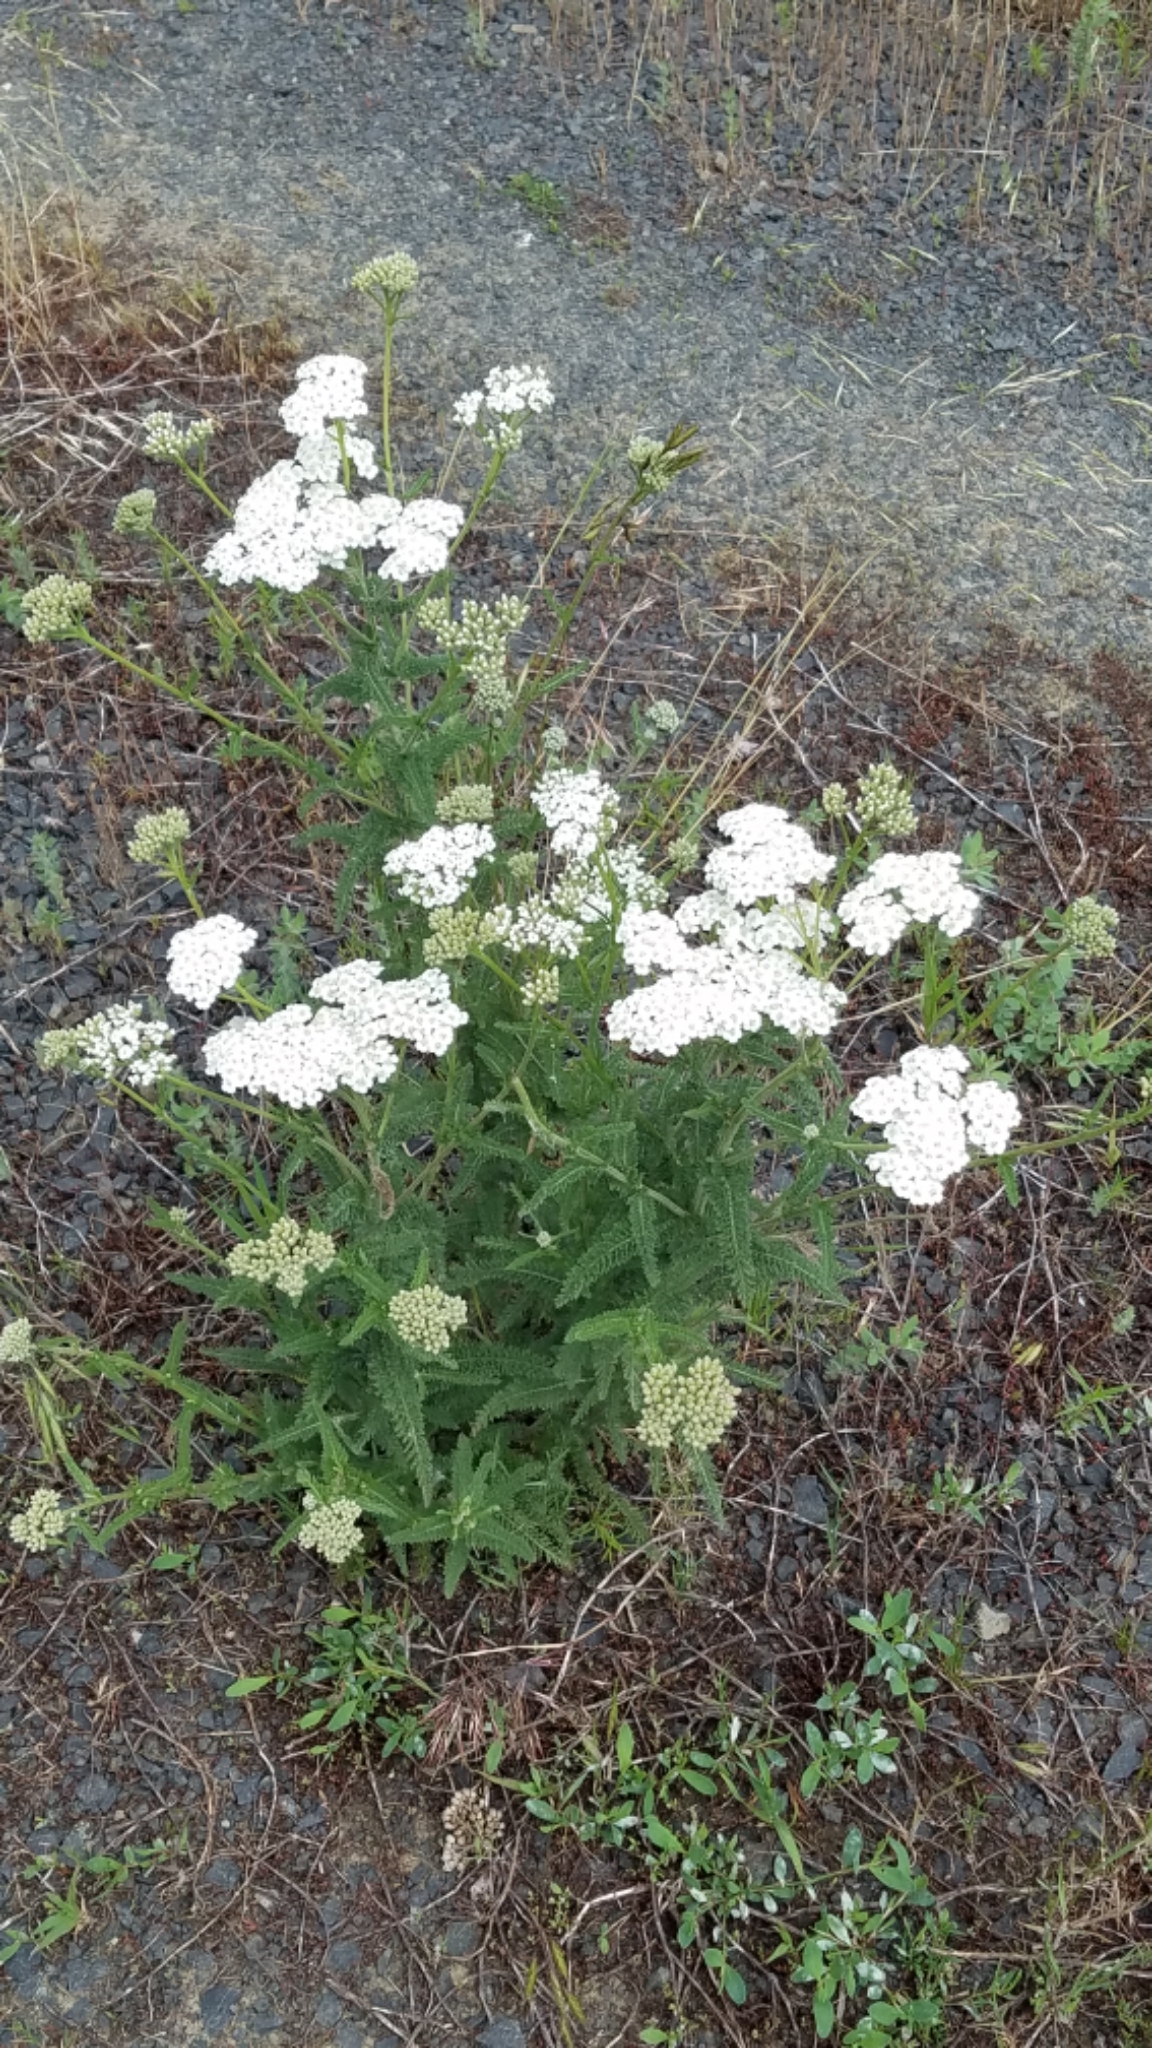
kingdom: Plantae
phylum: Tracheophyta
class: Magnoliopsida
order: Asterales
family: Asteraceae
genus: Achillea
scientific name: Achillea millefolium
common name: Yarrow
